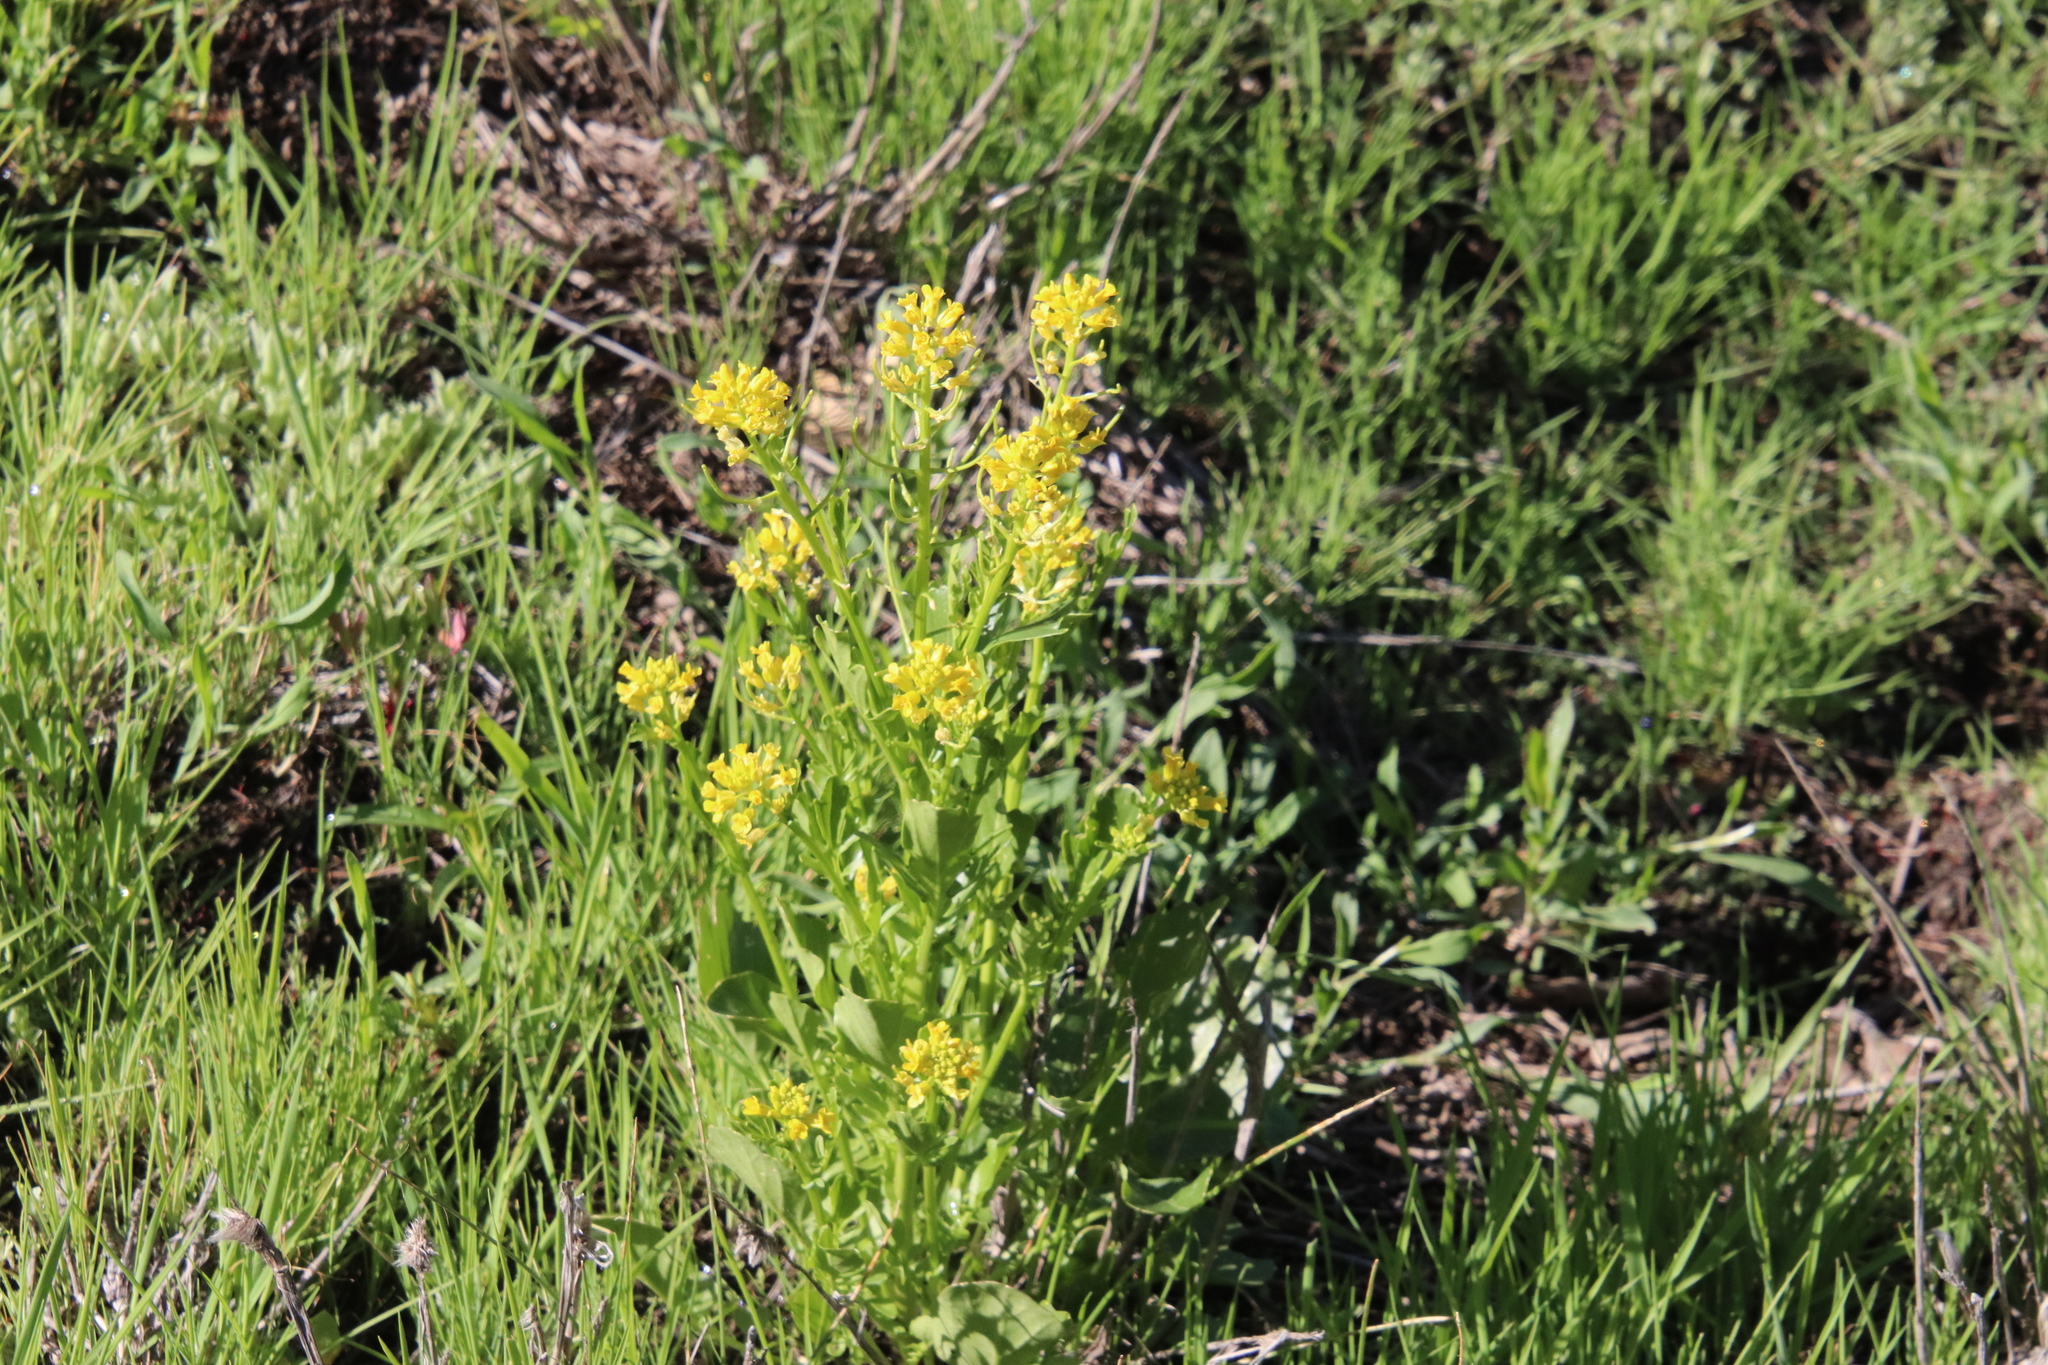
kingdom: Plantae
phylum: Tracheophyta
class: Magnoliopsida
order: Brassicales
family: Brassicaceae
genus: Barbarea
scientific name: Barbarea orthoceras
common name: American wintercress
